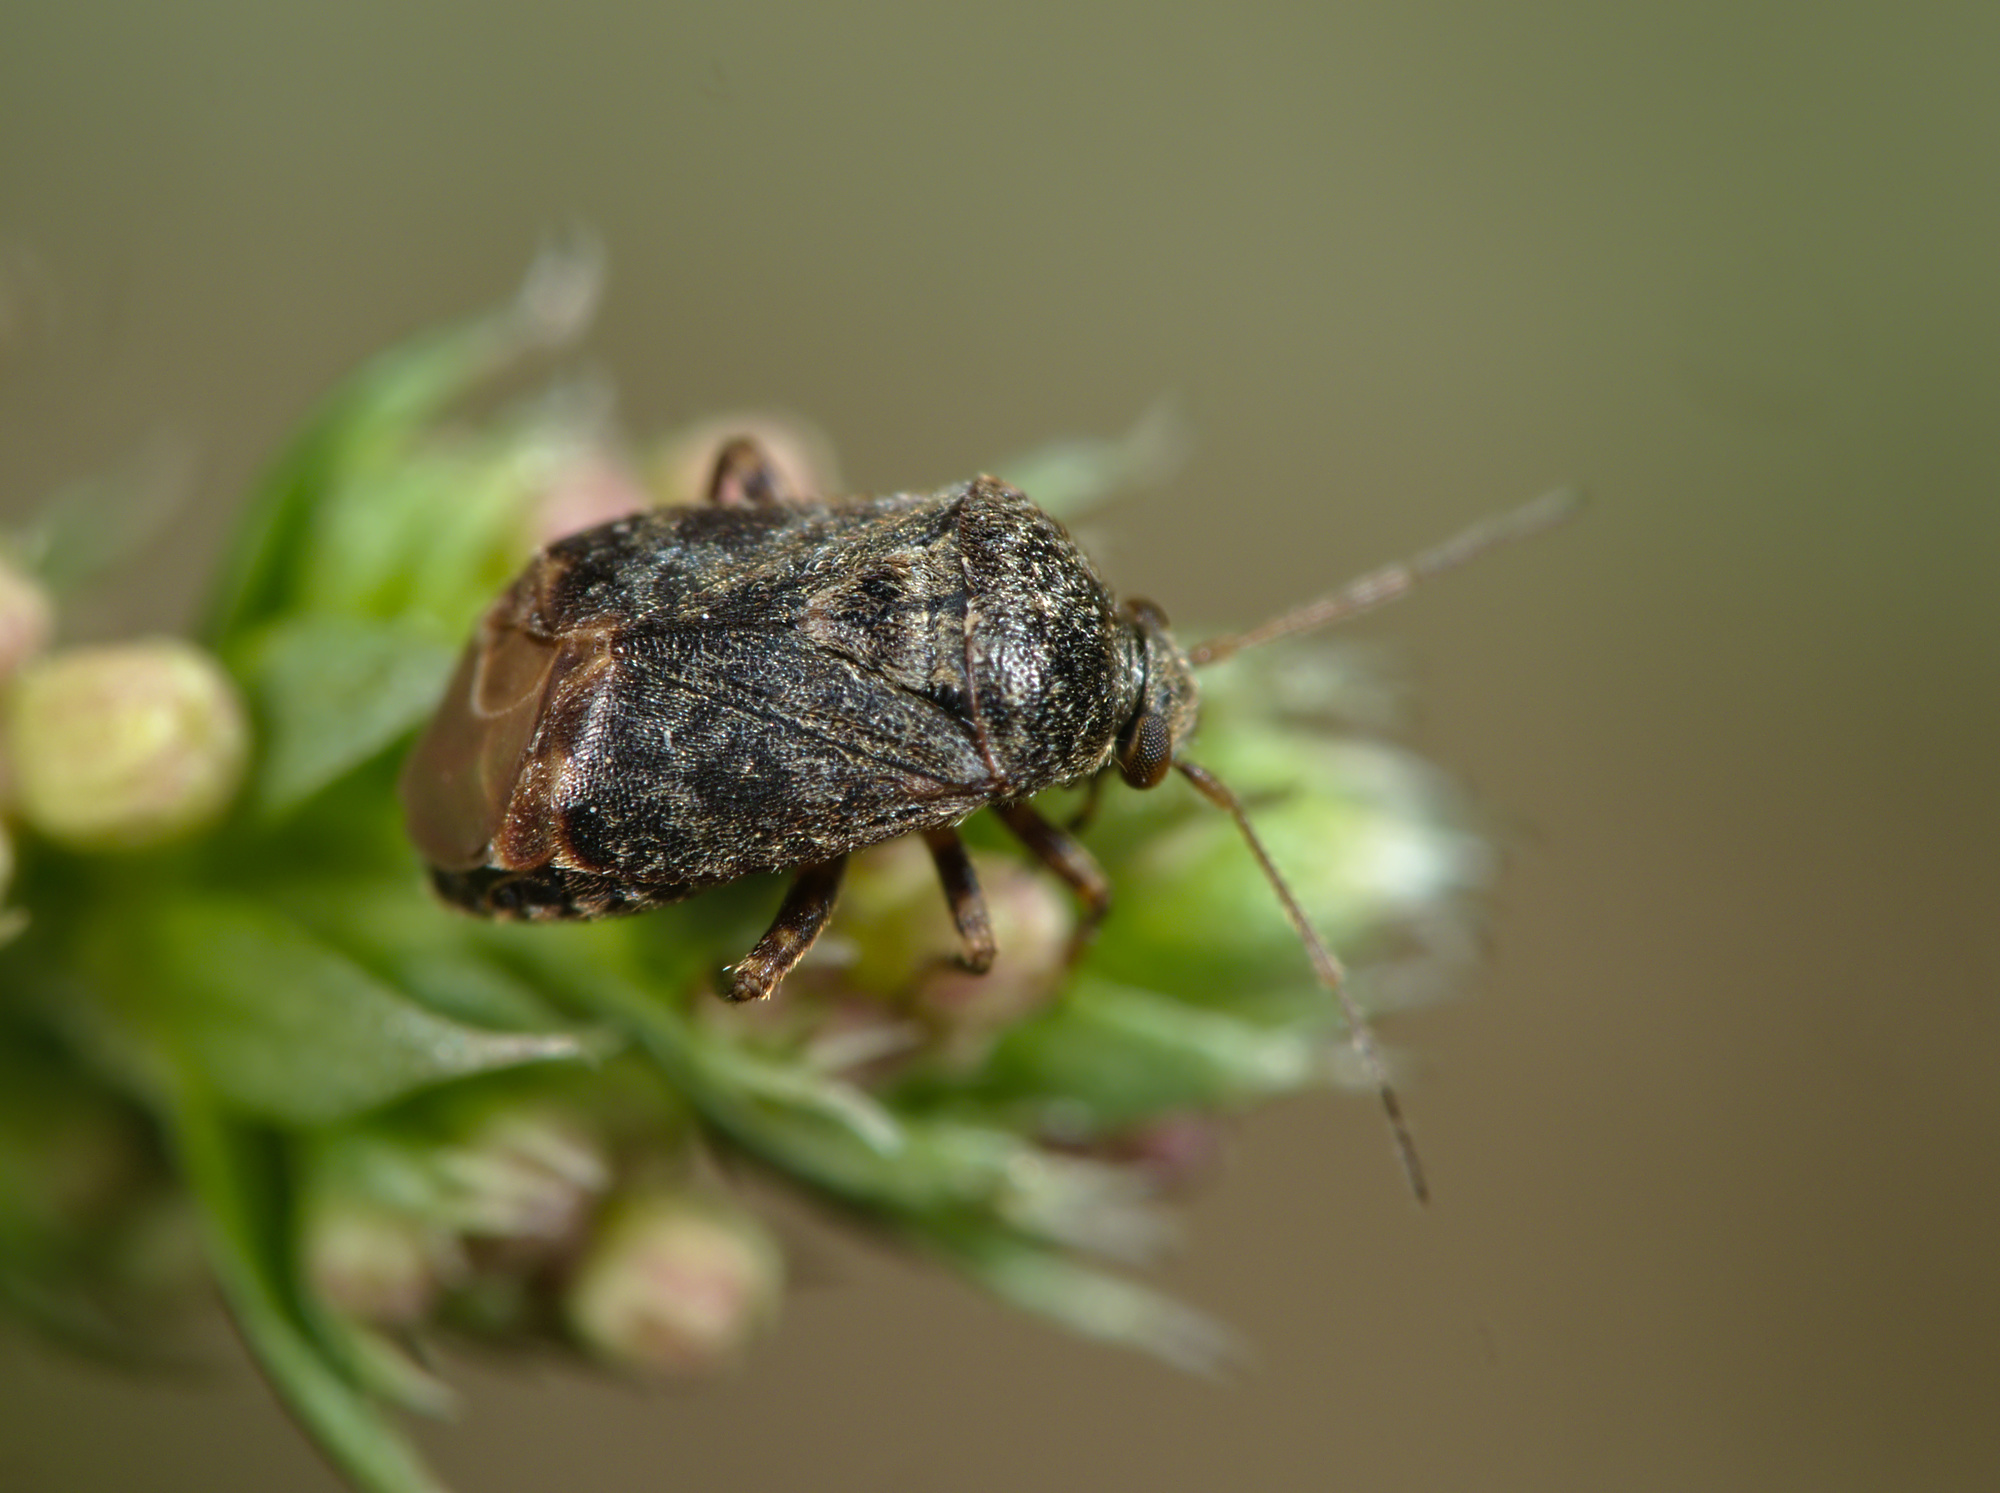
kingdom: Animalia
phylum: Arthropoda
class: Insecta
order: Hemiptera
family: Miridae
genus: Charagochilus
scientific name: Charagochilus gyllenhalii
